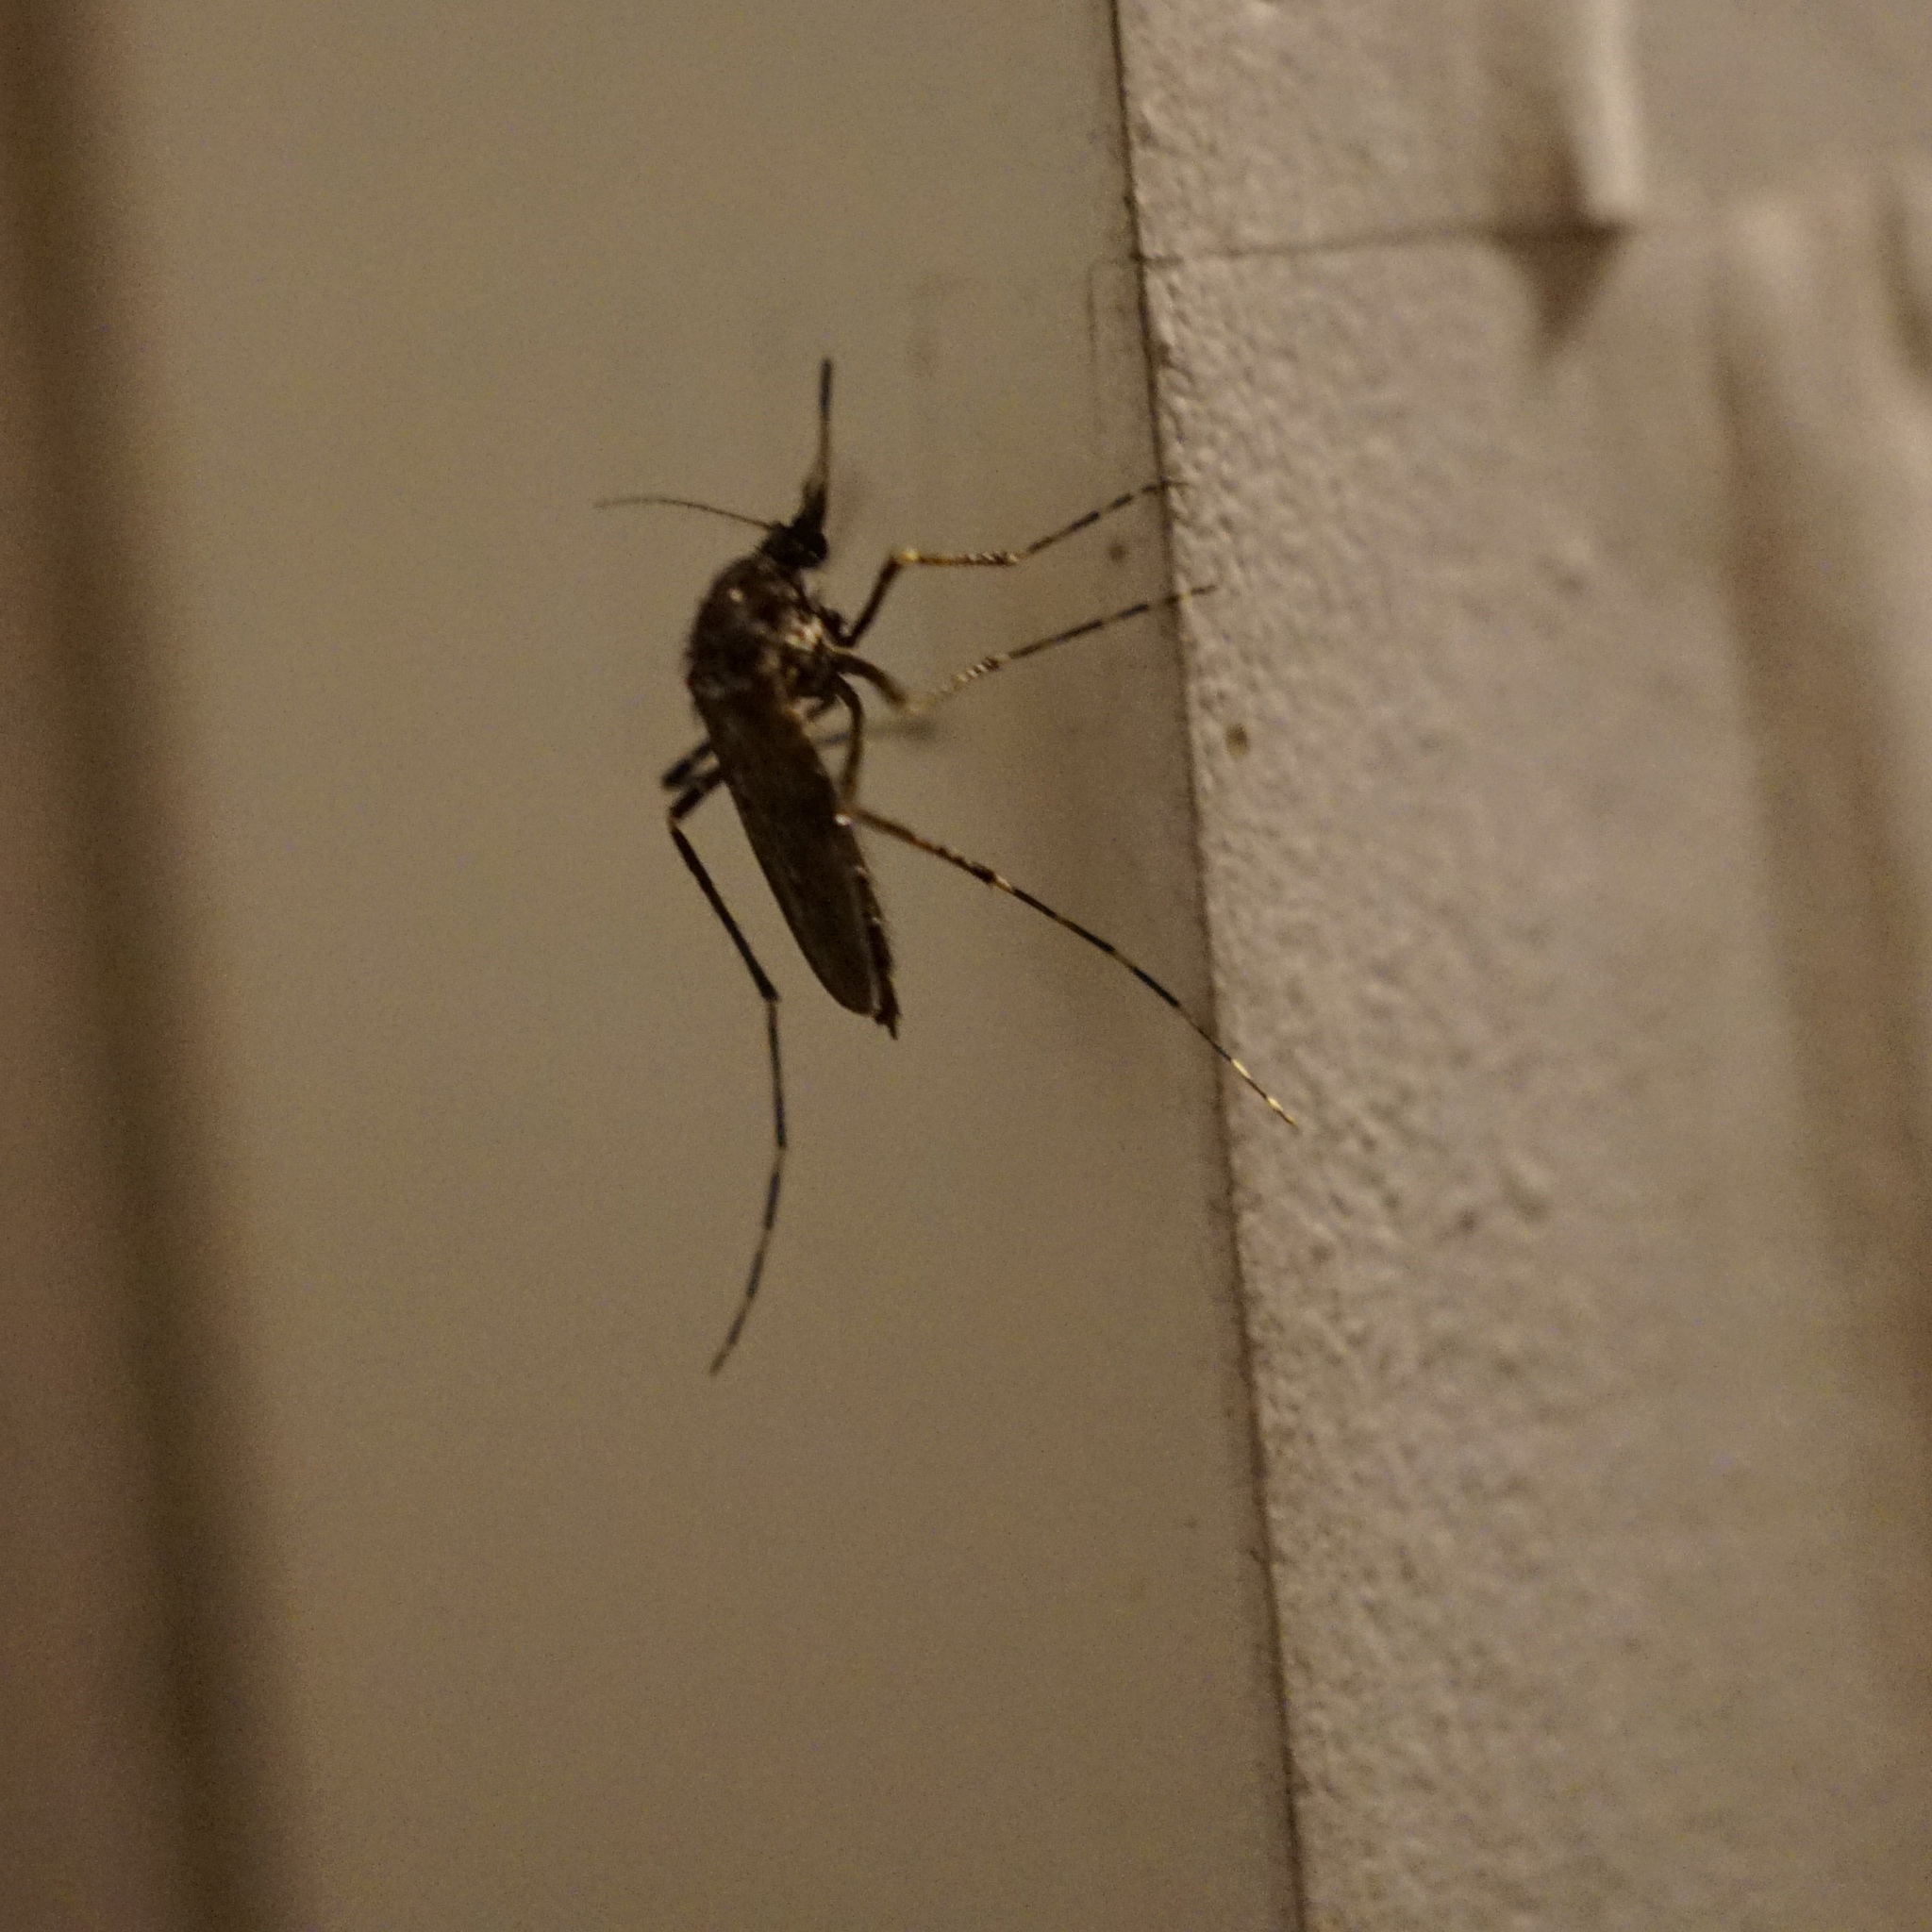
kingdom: Animalia
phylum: Arthropoda
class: Insecta
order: Diptera
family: Culicidae
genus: Psorophora
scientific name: Psorophora columbiae
